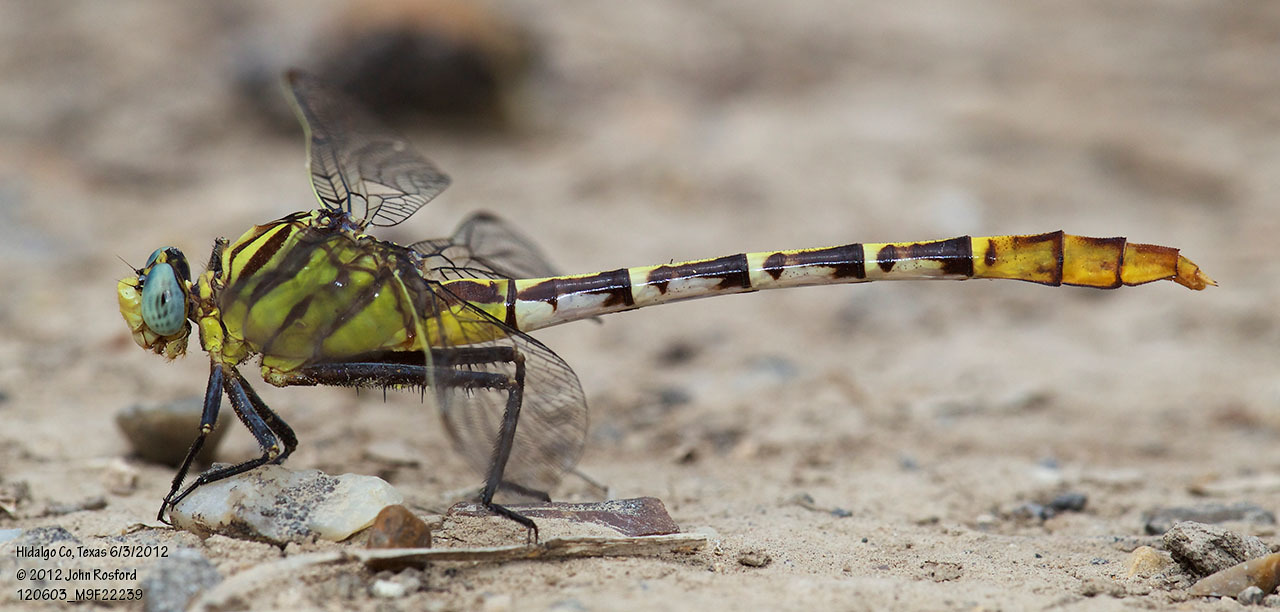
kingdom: Animalia
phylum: Arthropoda
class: Insecta
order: Odonata
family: Gomphidae
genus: Dromogomphus
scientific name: Dromogomphus spoliatus
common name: Flag-tailed spinyleg
